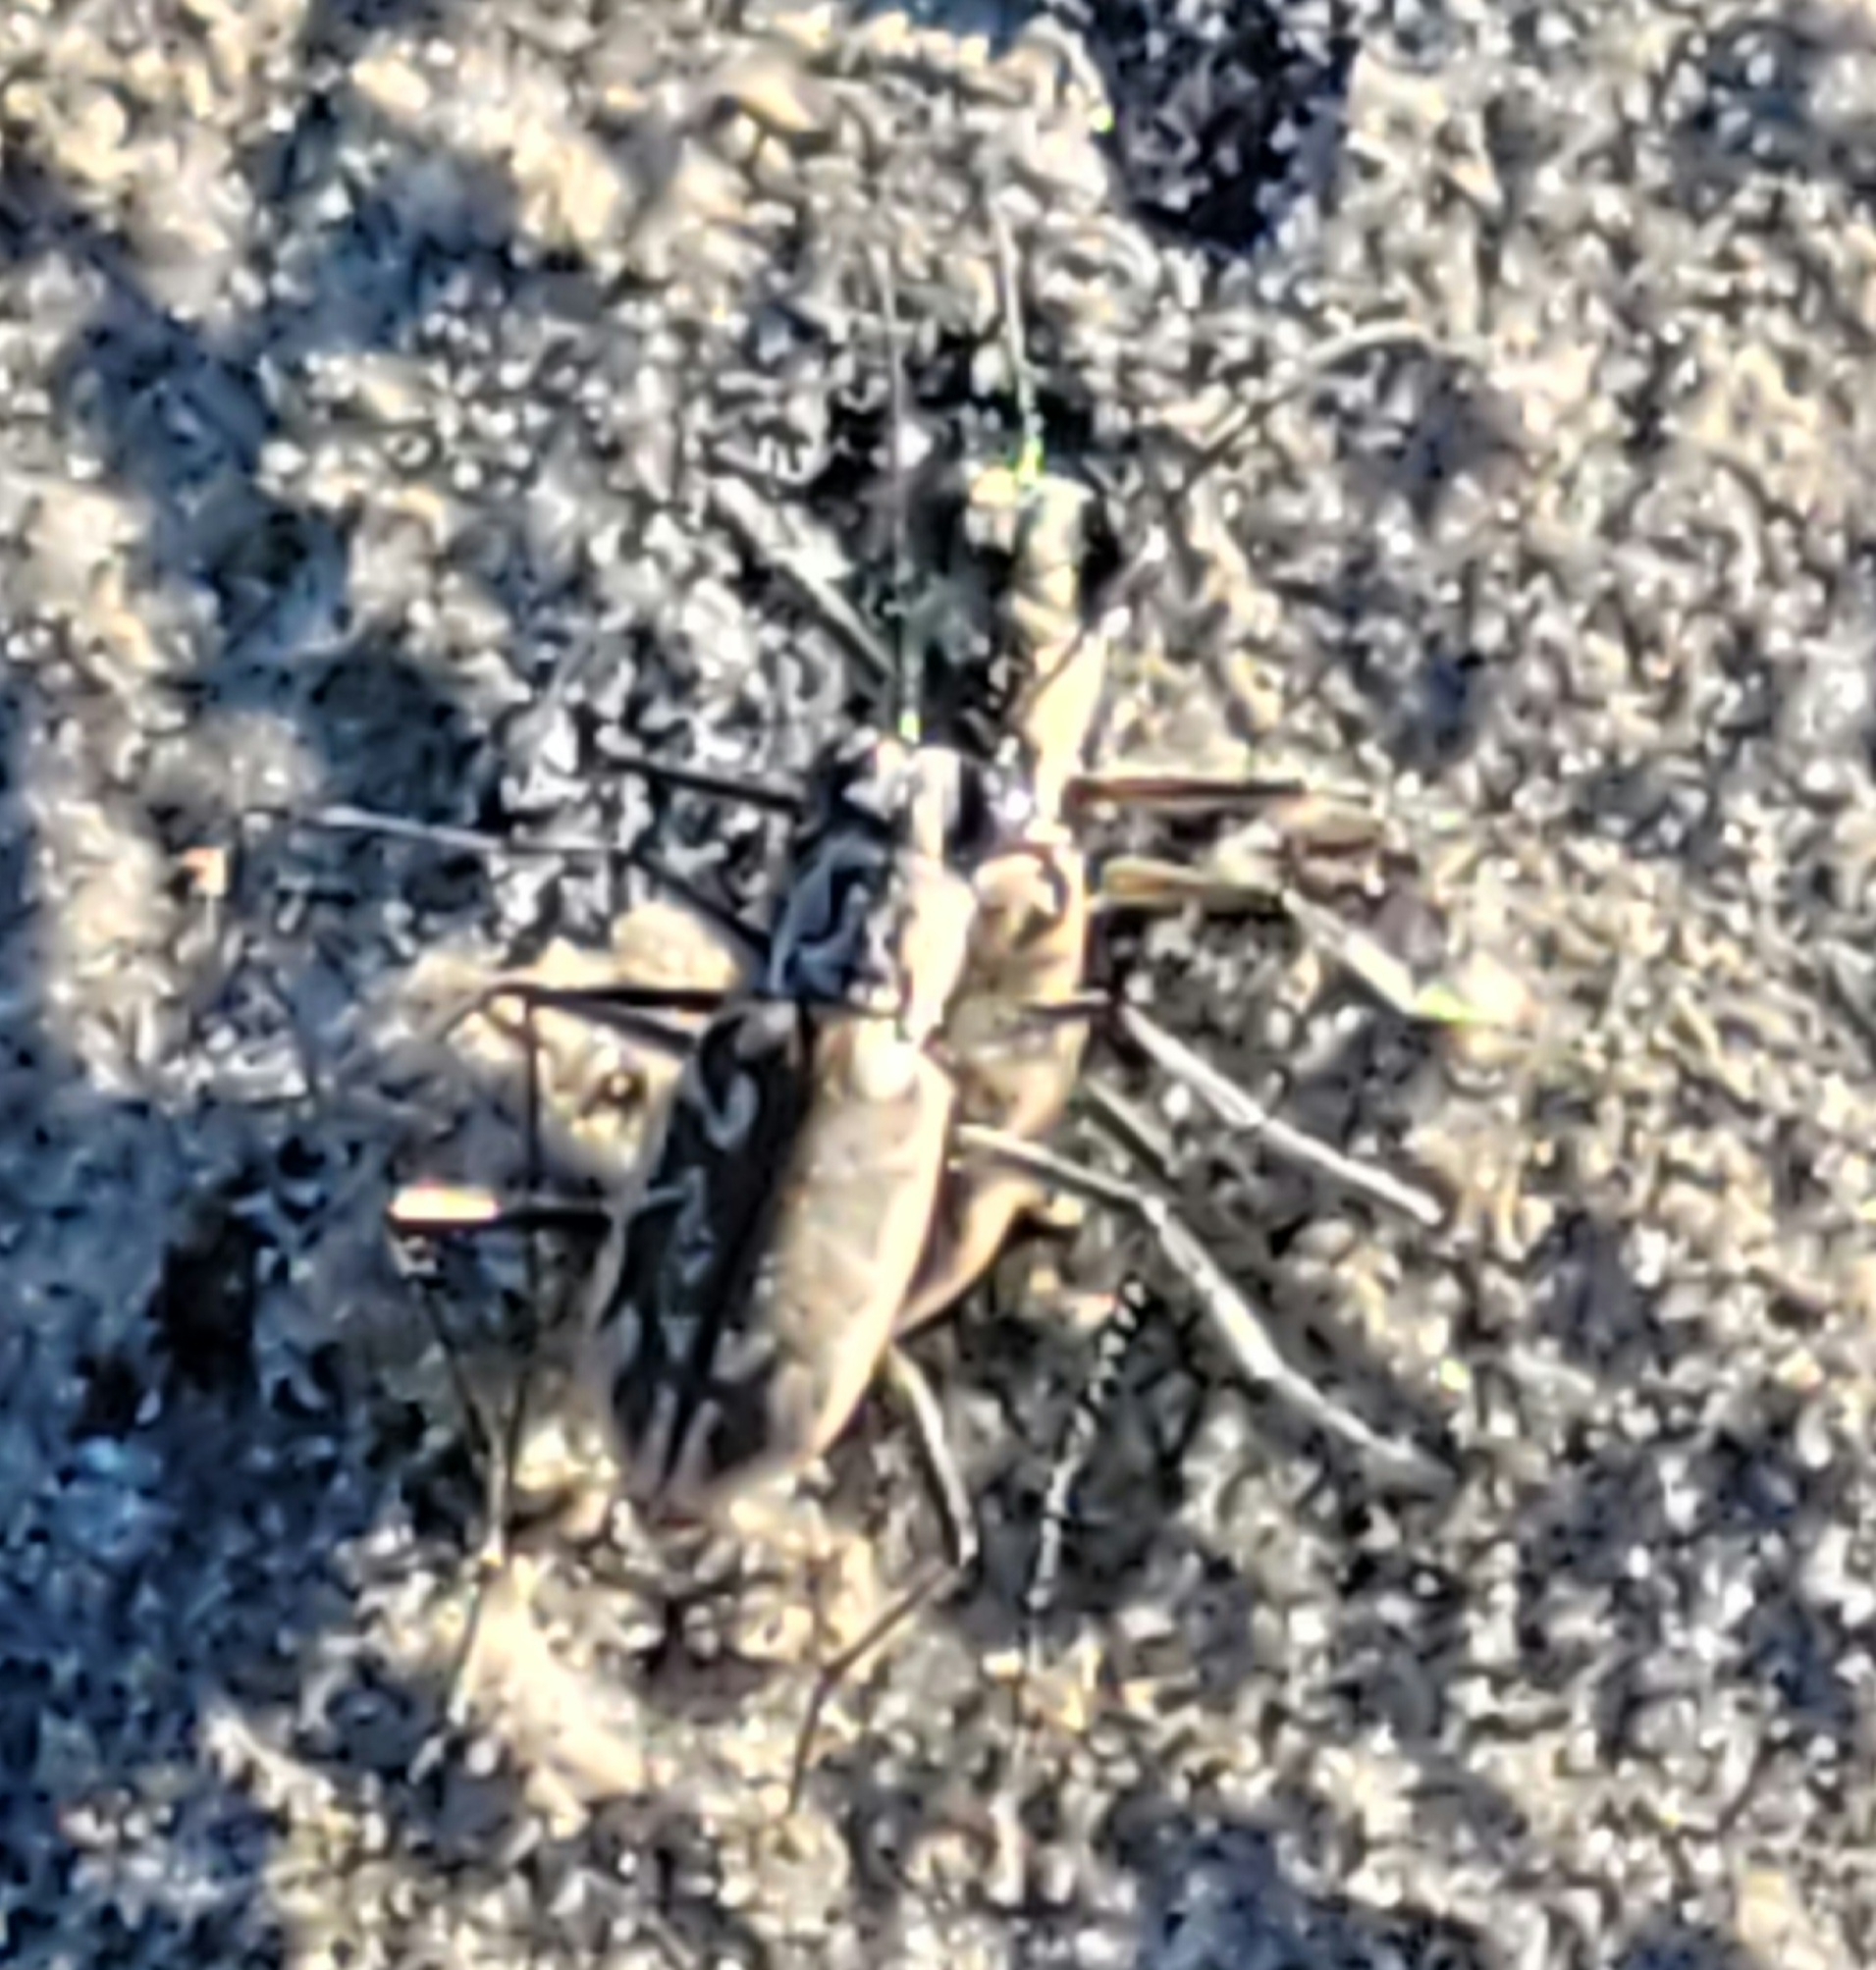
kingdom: Animalia
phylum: Arthropoda
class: Insecta
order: Coleoptera
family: Carabidae
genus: Ellipsoptera
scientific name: Ellipsoptera hamata
